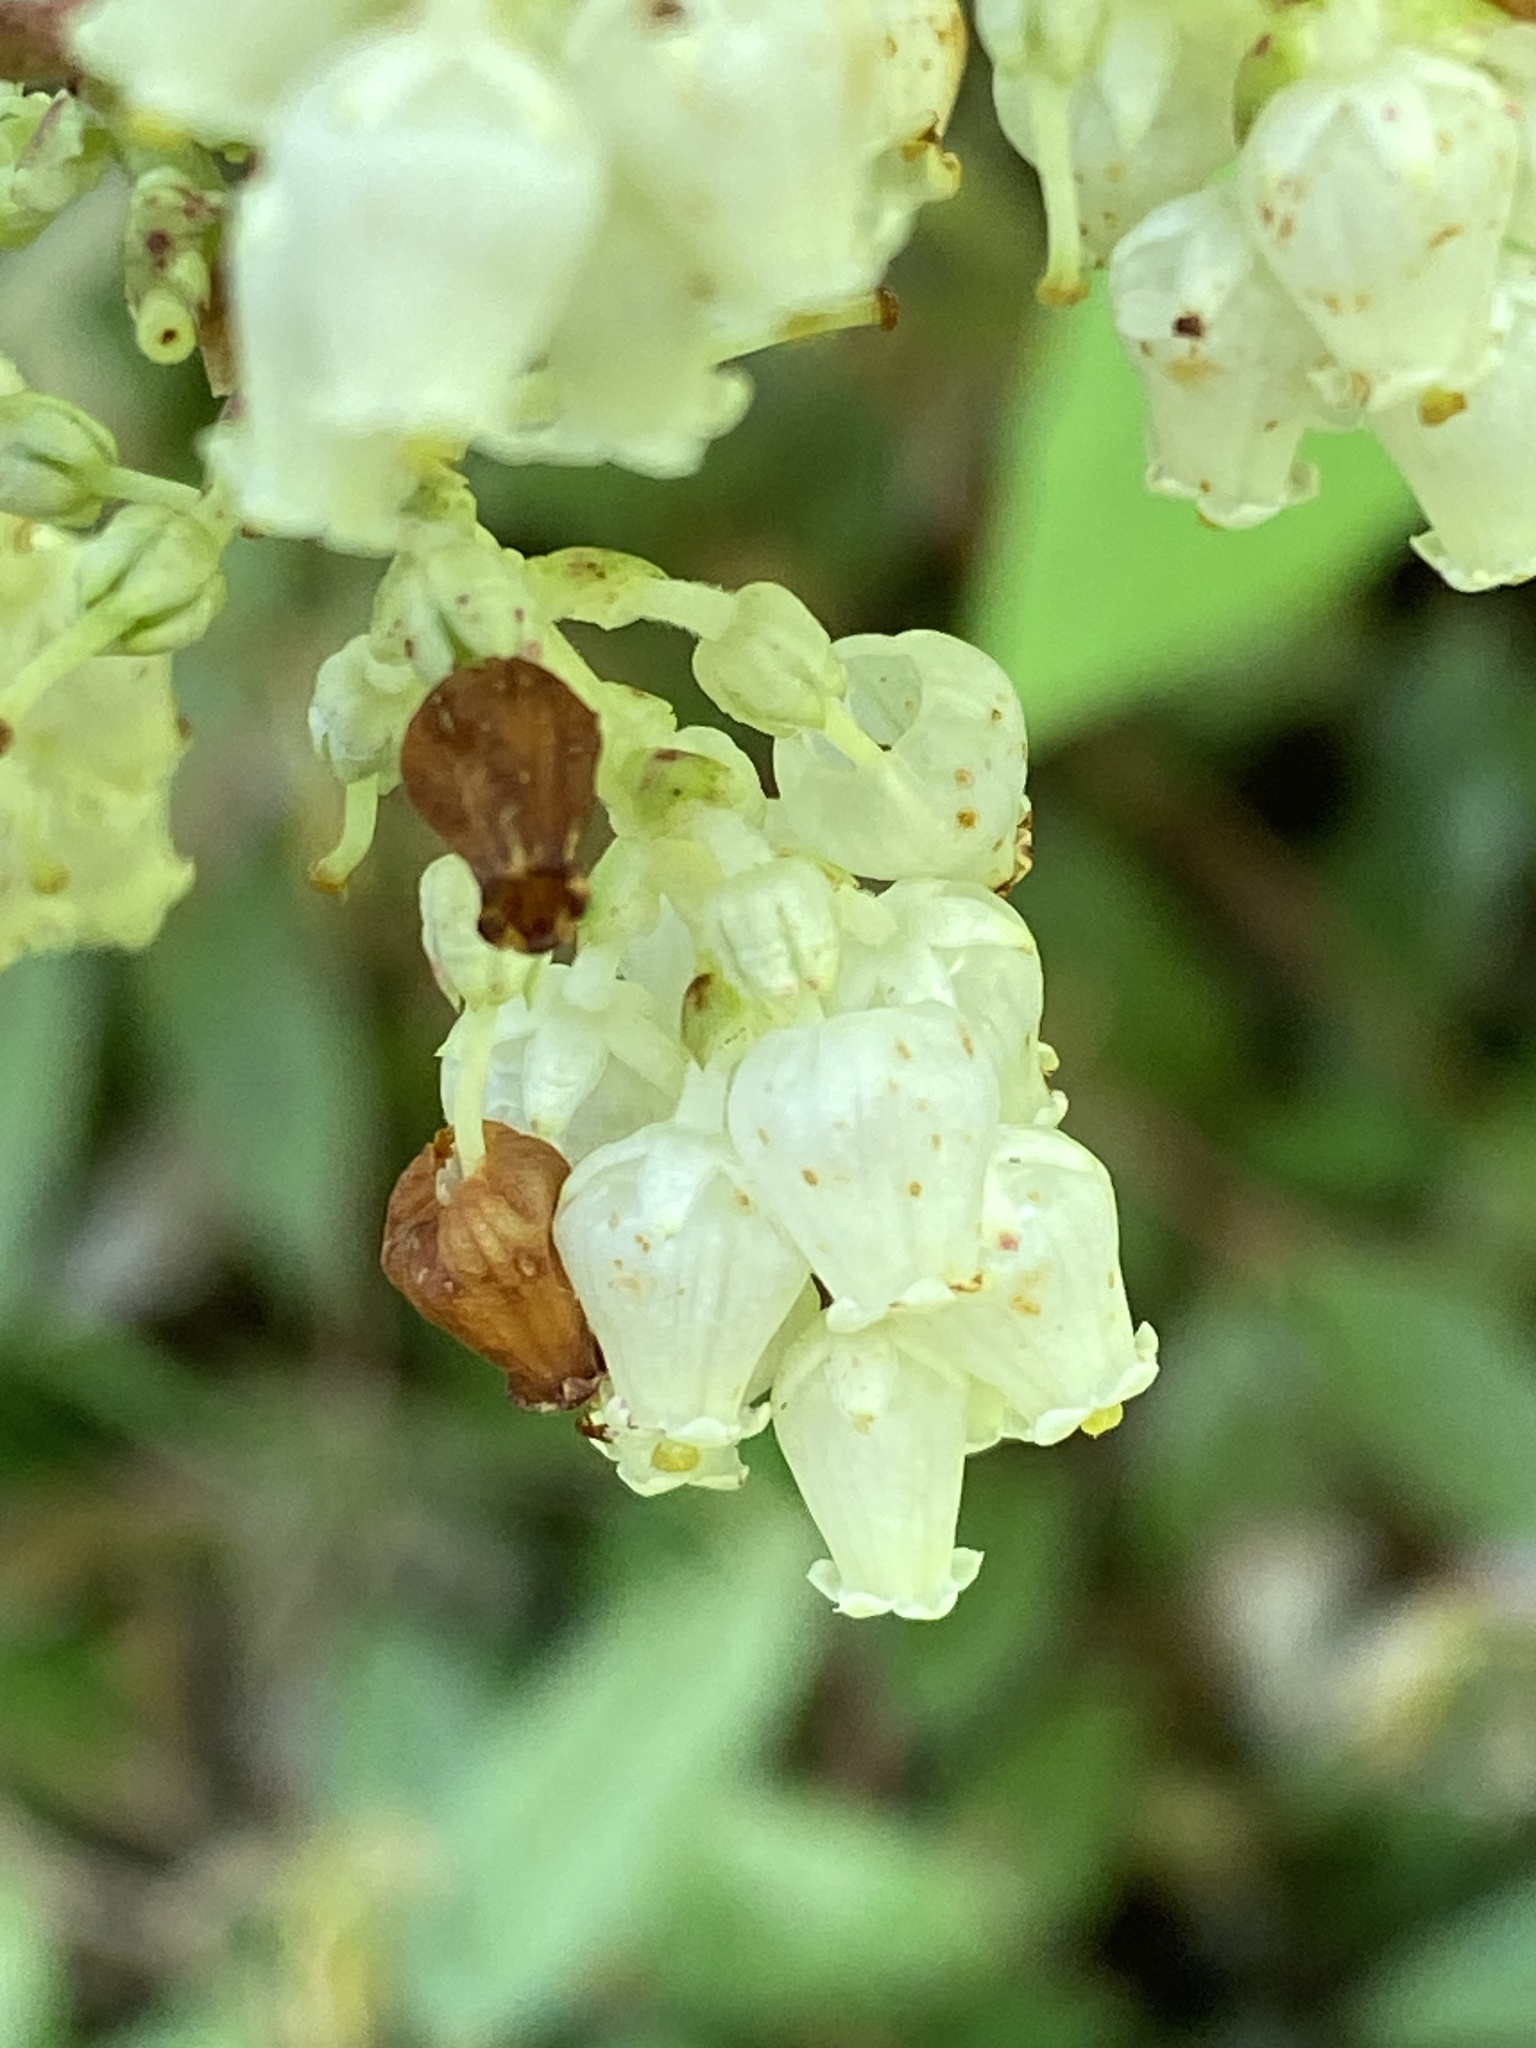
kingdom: Plantae
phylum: Tracheophyta
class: Magnoliopsida
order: Ericales
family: Ericaceae
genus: Leucothoe
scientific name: Leucothoe axillaris
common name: Leucothoe
